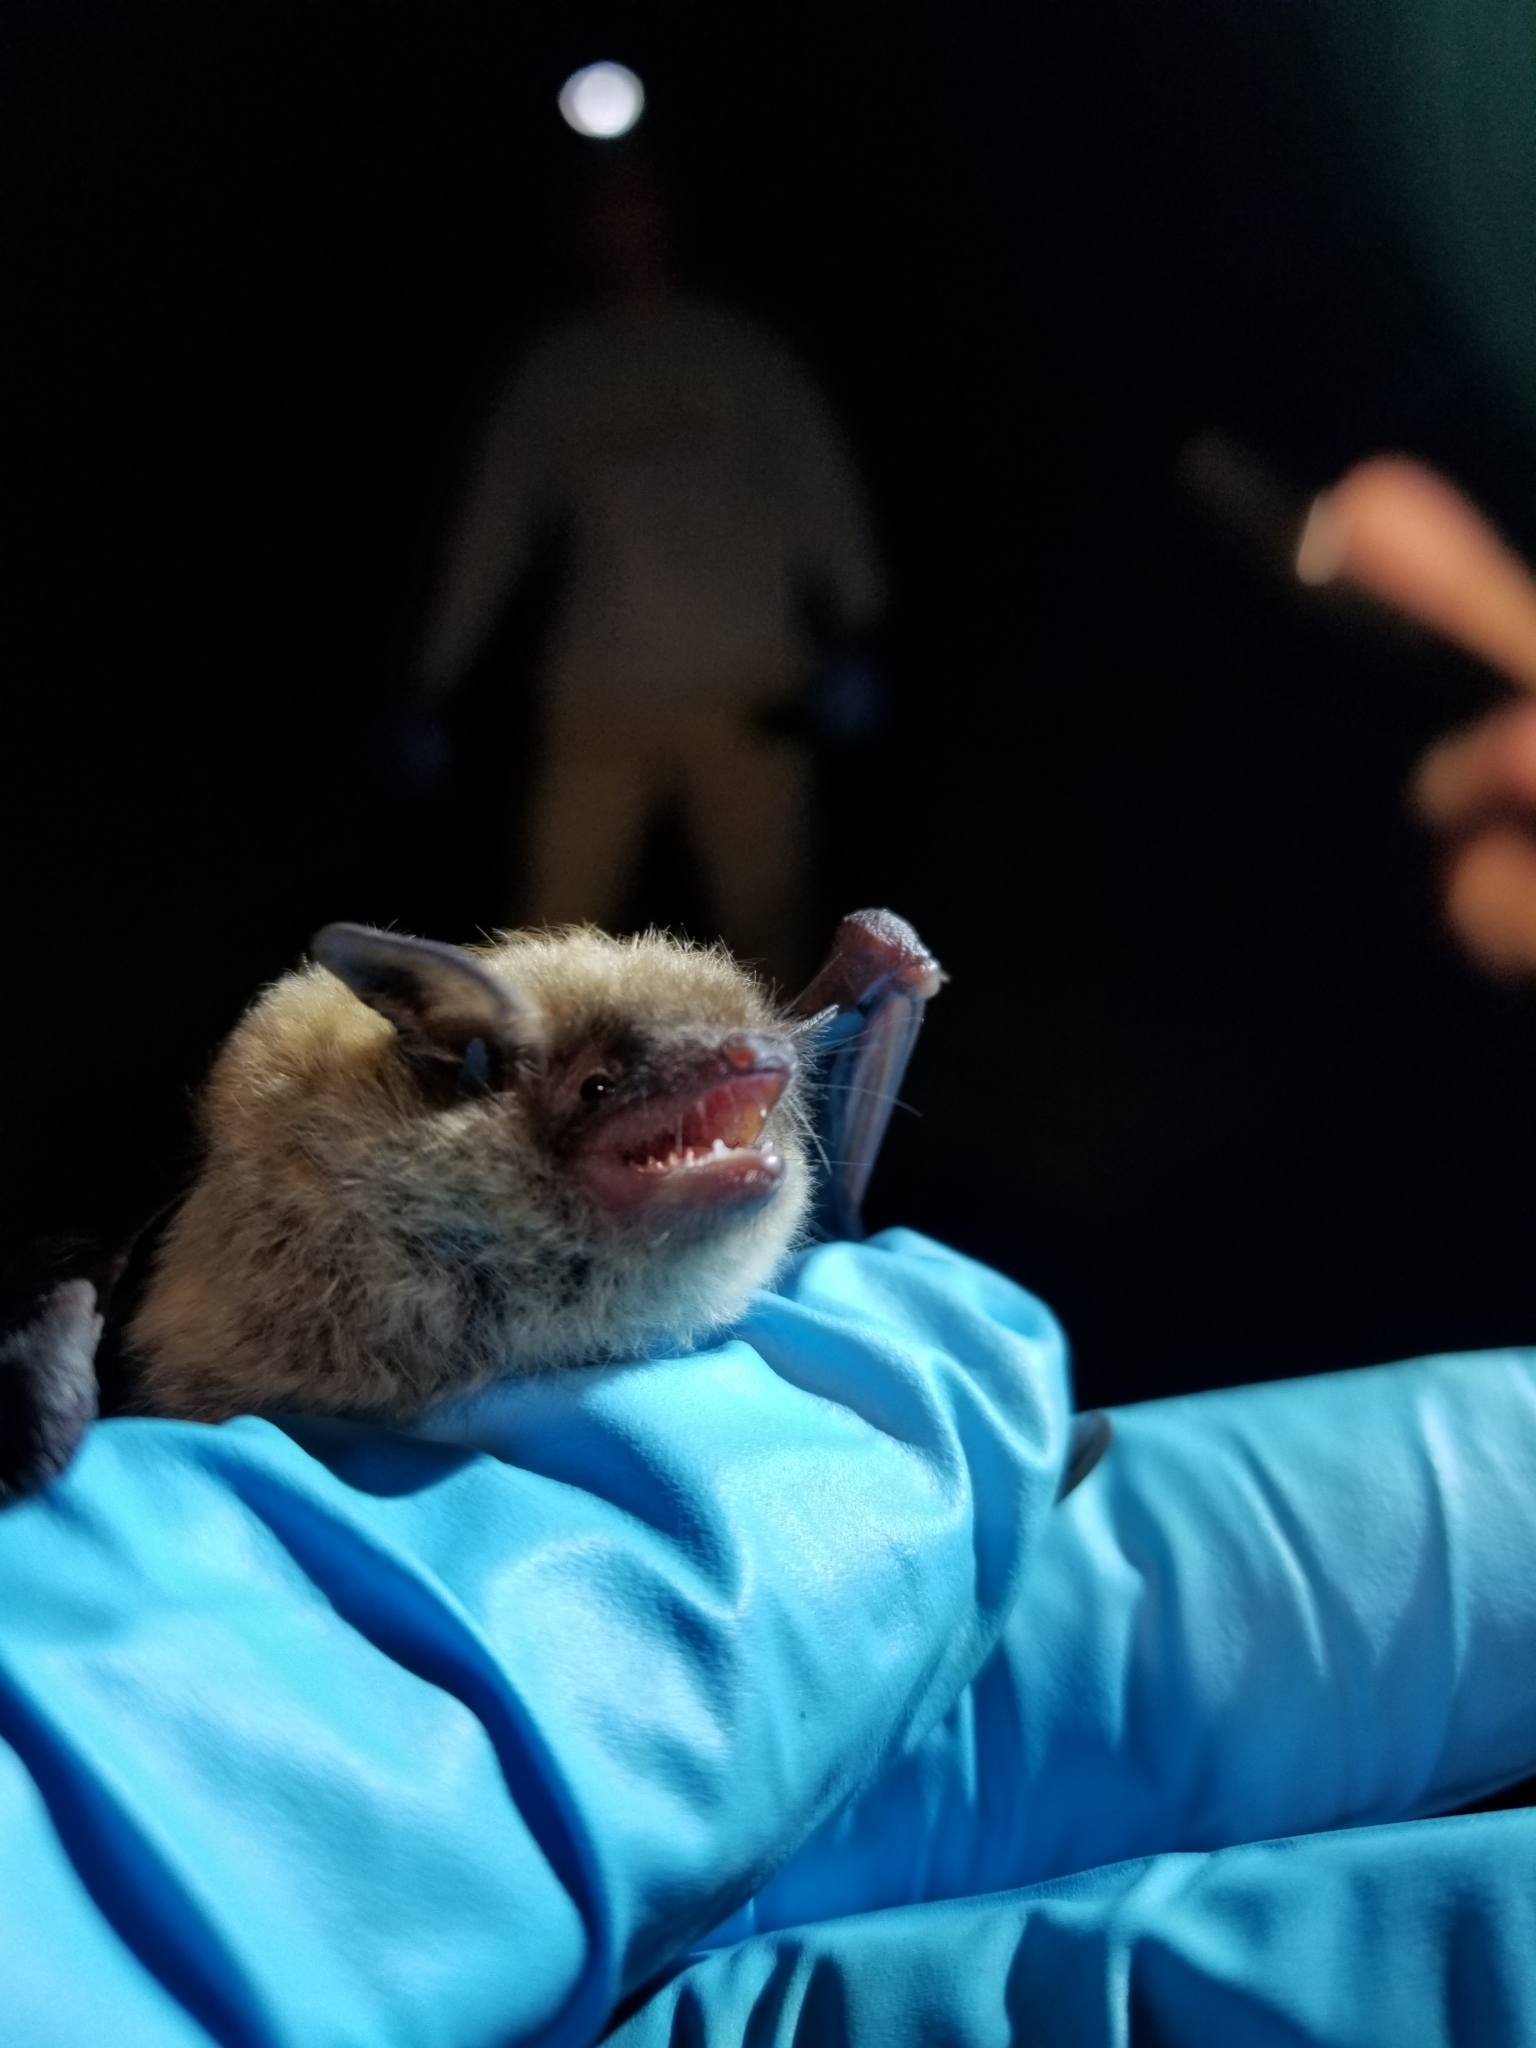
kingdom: Animalia
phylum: Chordata
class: Mammalia
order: Chiroptera
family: Vespertilionidae
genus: Myotis
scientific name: Myotis lucifugus
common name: Little brown bat
